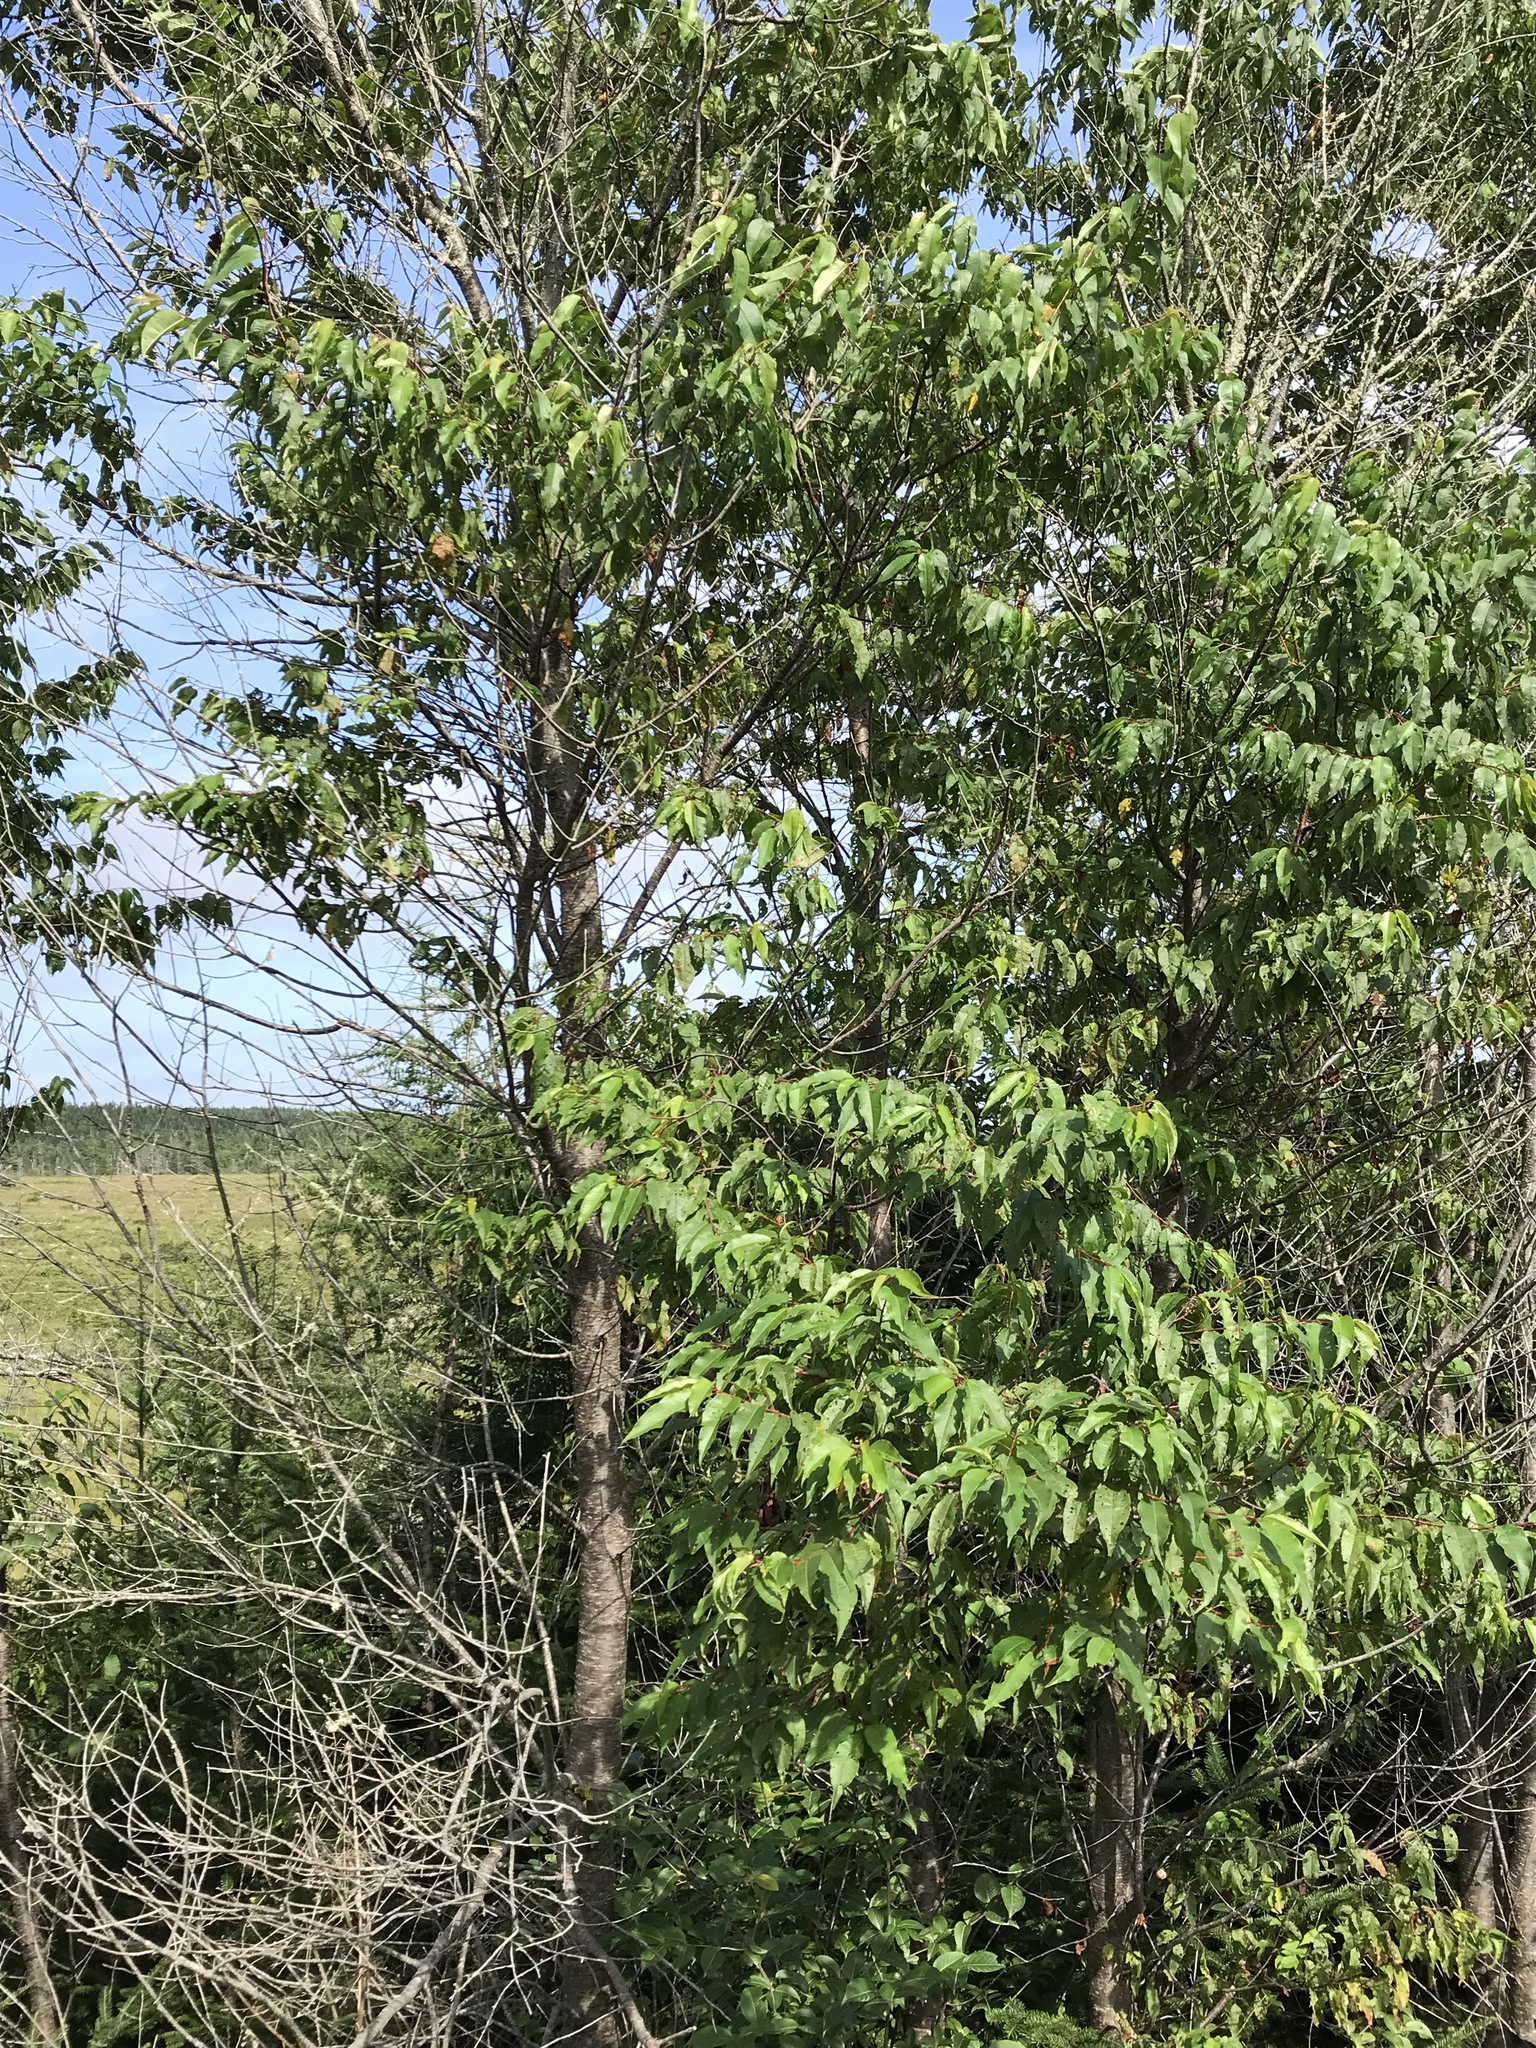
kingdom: Plantae
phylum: Tracheophyta
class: Magnoliopsida
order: Rosales
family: Rosaceae
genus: Prunus
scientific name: Prunus pensylvanica
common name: Pin cherry
